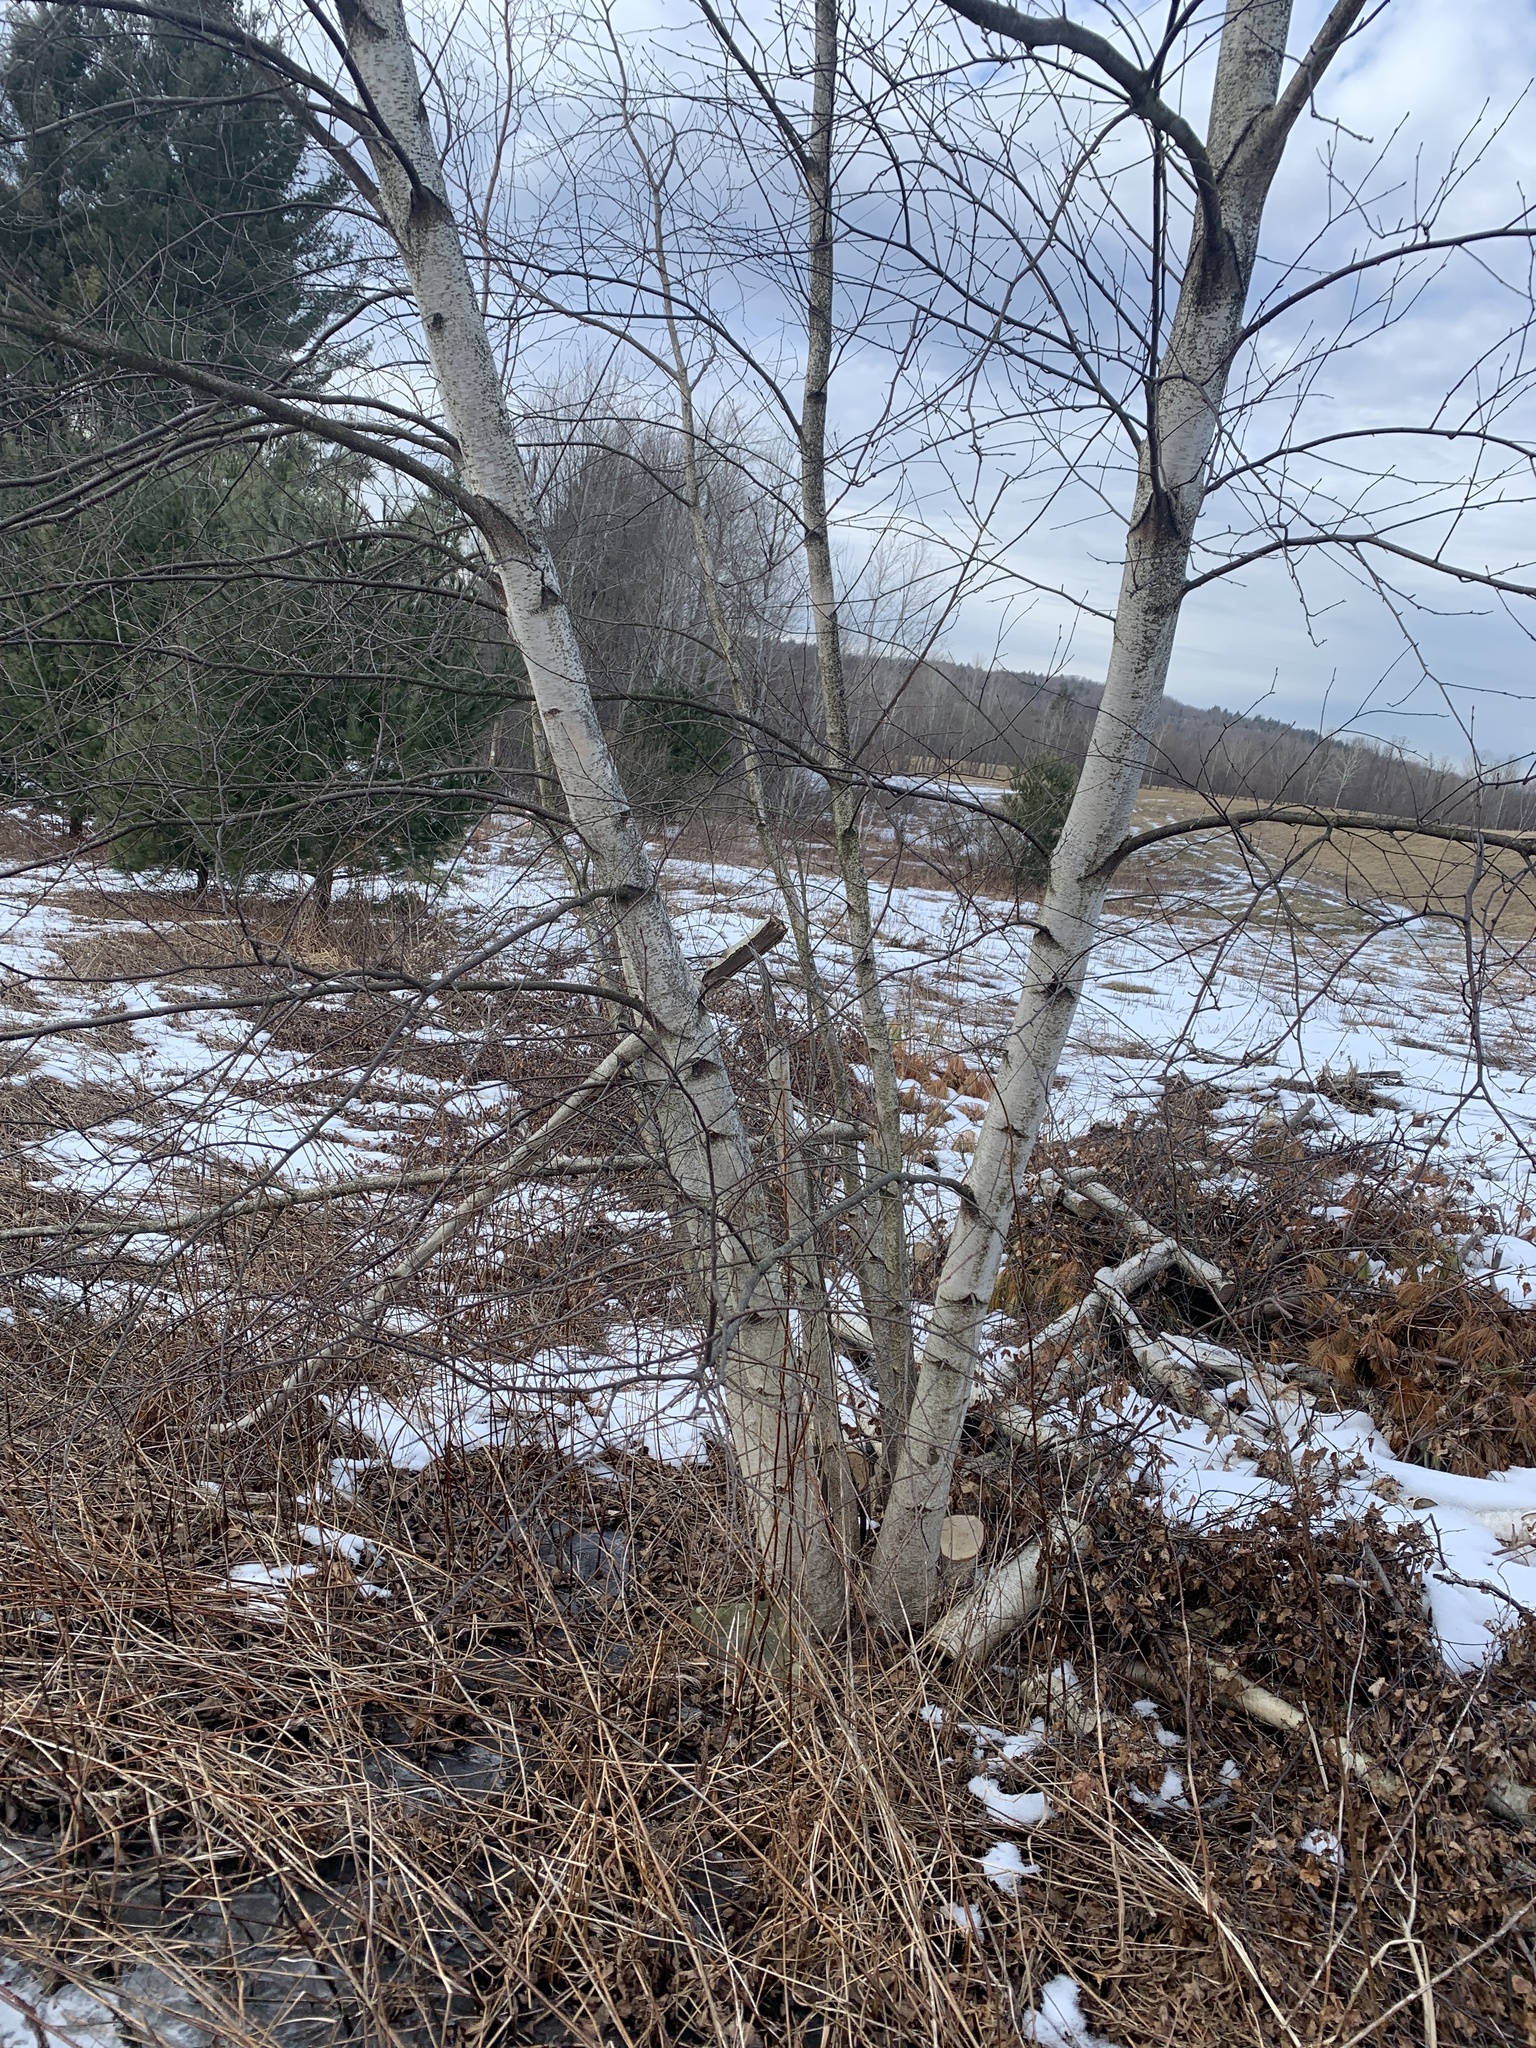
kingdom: Plantae
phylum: Tracheophyta
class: Magnoliopsida
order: Fagales
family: Betulaceae
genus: Betula
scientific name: Betula populifolia
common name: Fire birch
